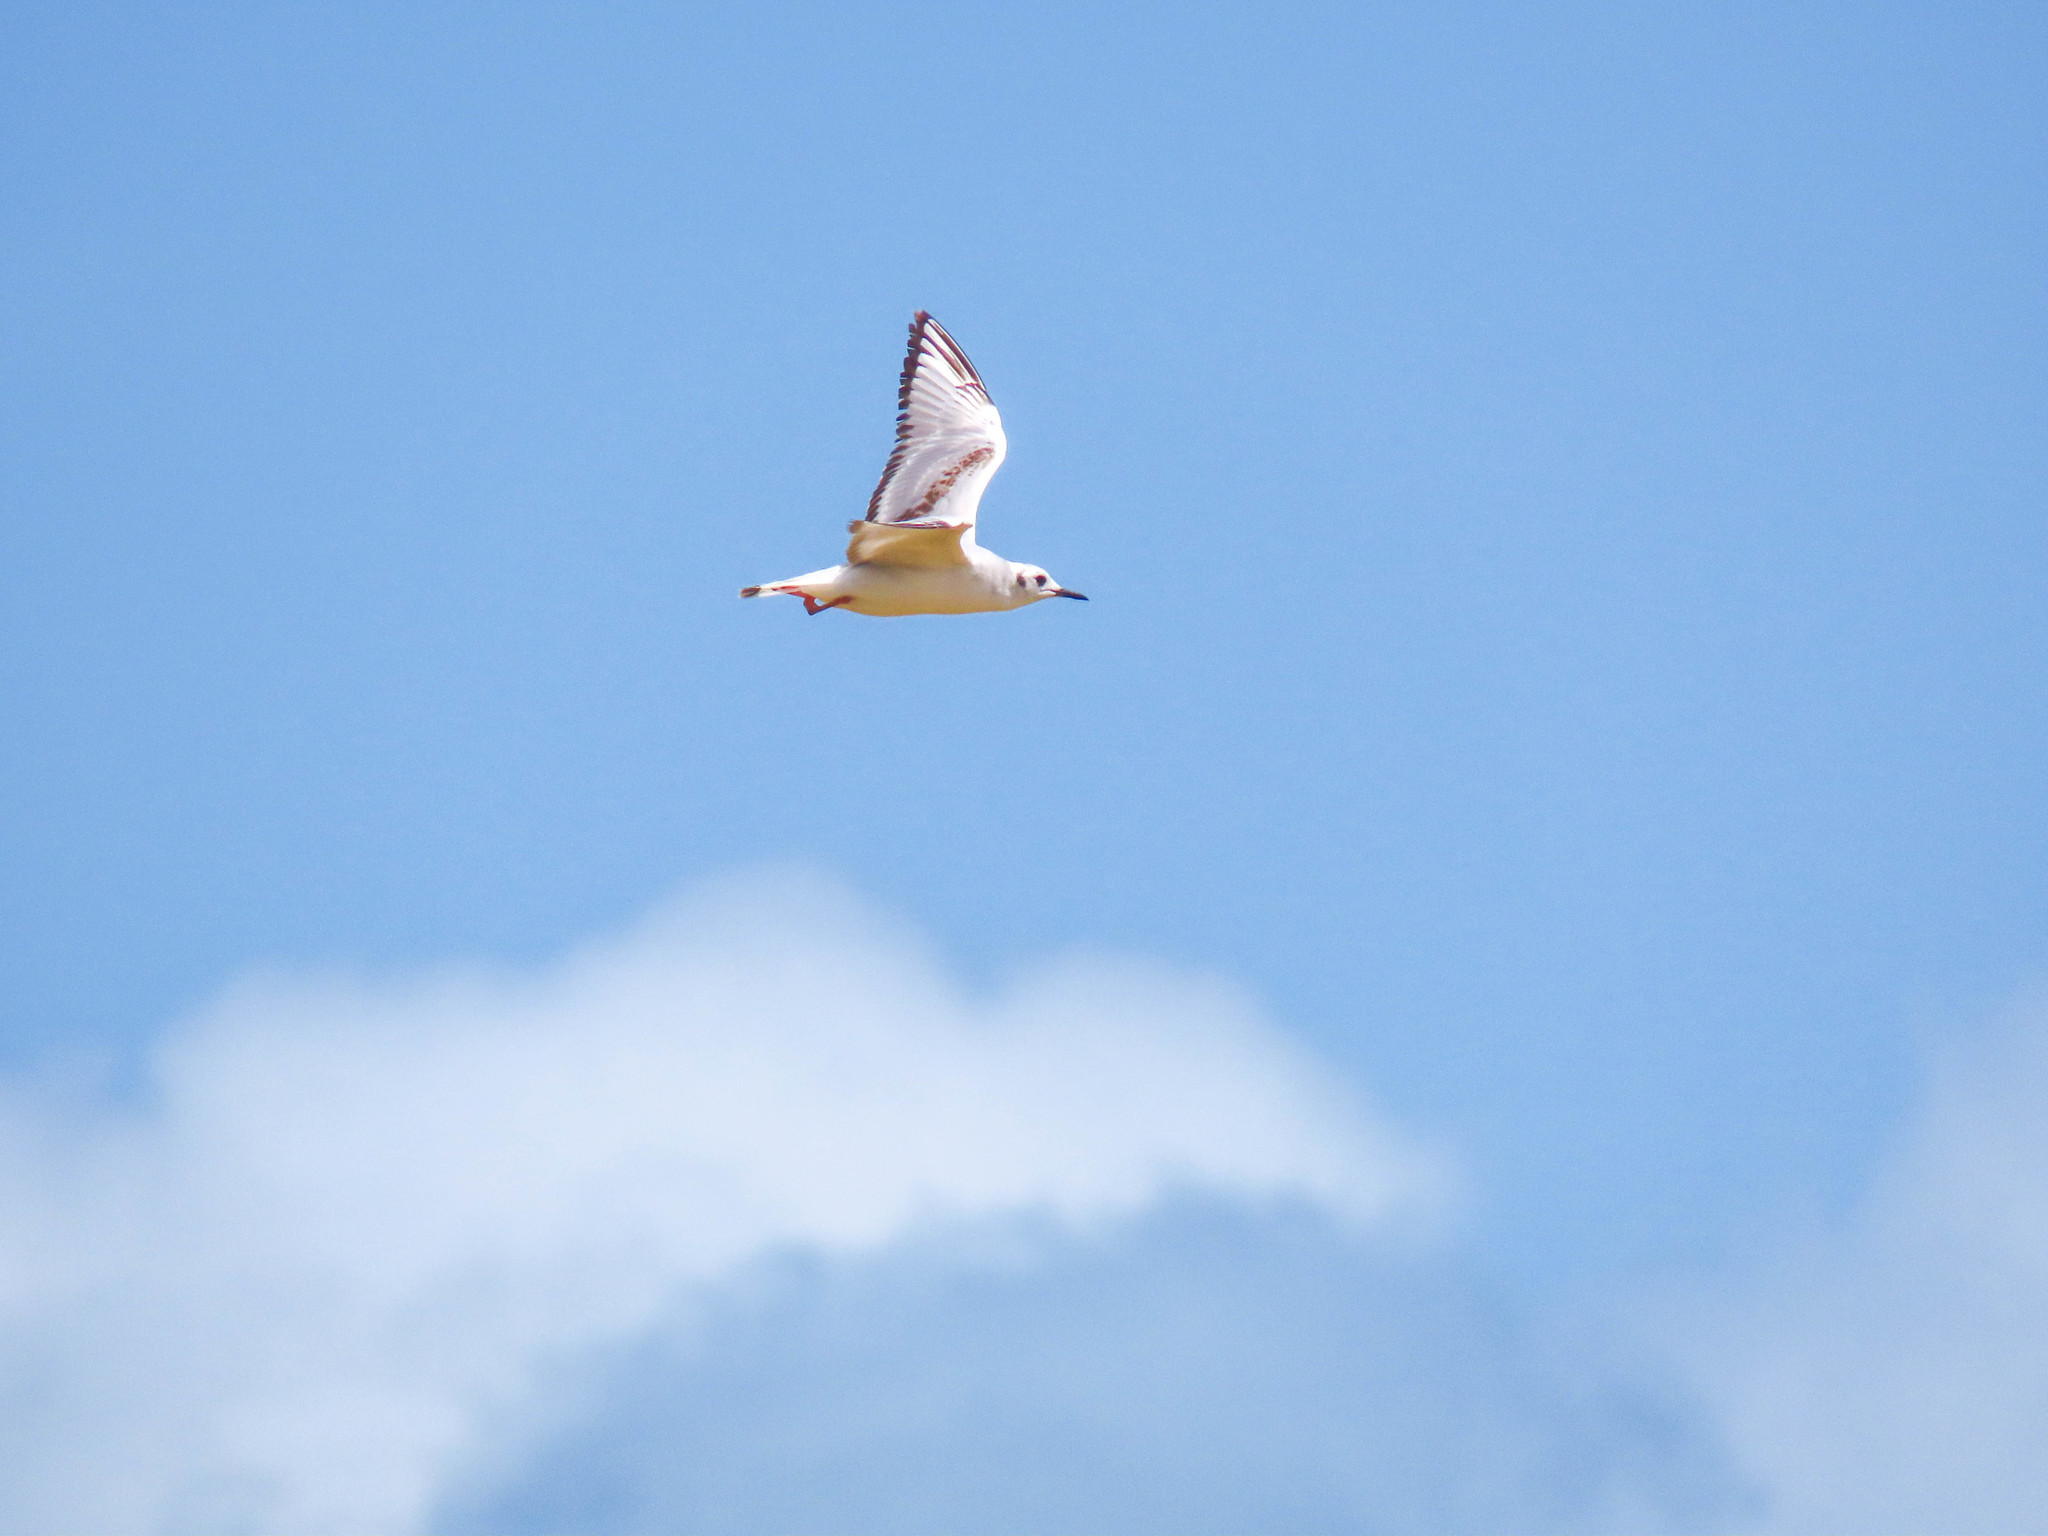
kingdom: Animalia
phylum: Chordata
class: Aves
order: Charadriiformes
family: Laridae
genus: Chroicocephalus
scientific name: Chroicocephalus philadelphia
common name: Bonaparte's gull
